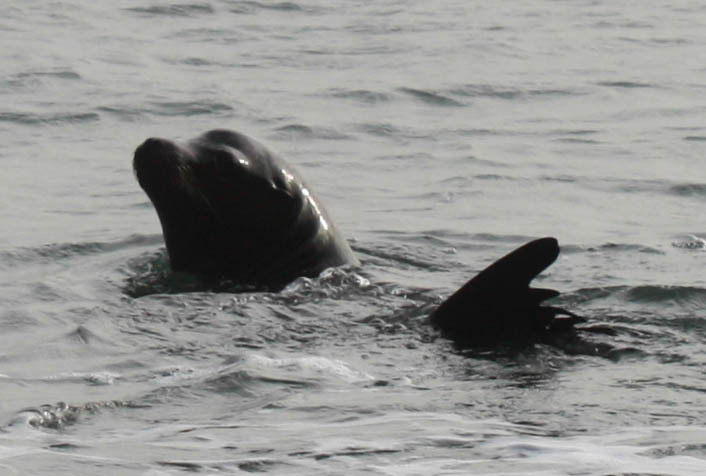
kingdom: Animalia
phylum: Chordata
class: Mammalia
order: Carnivora
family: Otariidae
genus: Zalophus
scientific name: Zalophus californianus
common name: California sea lion
